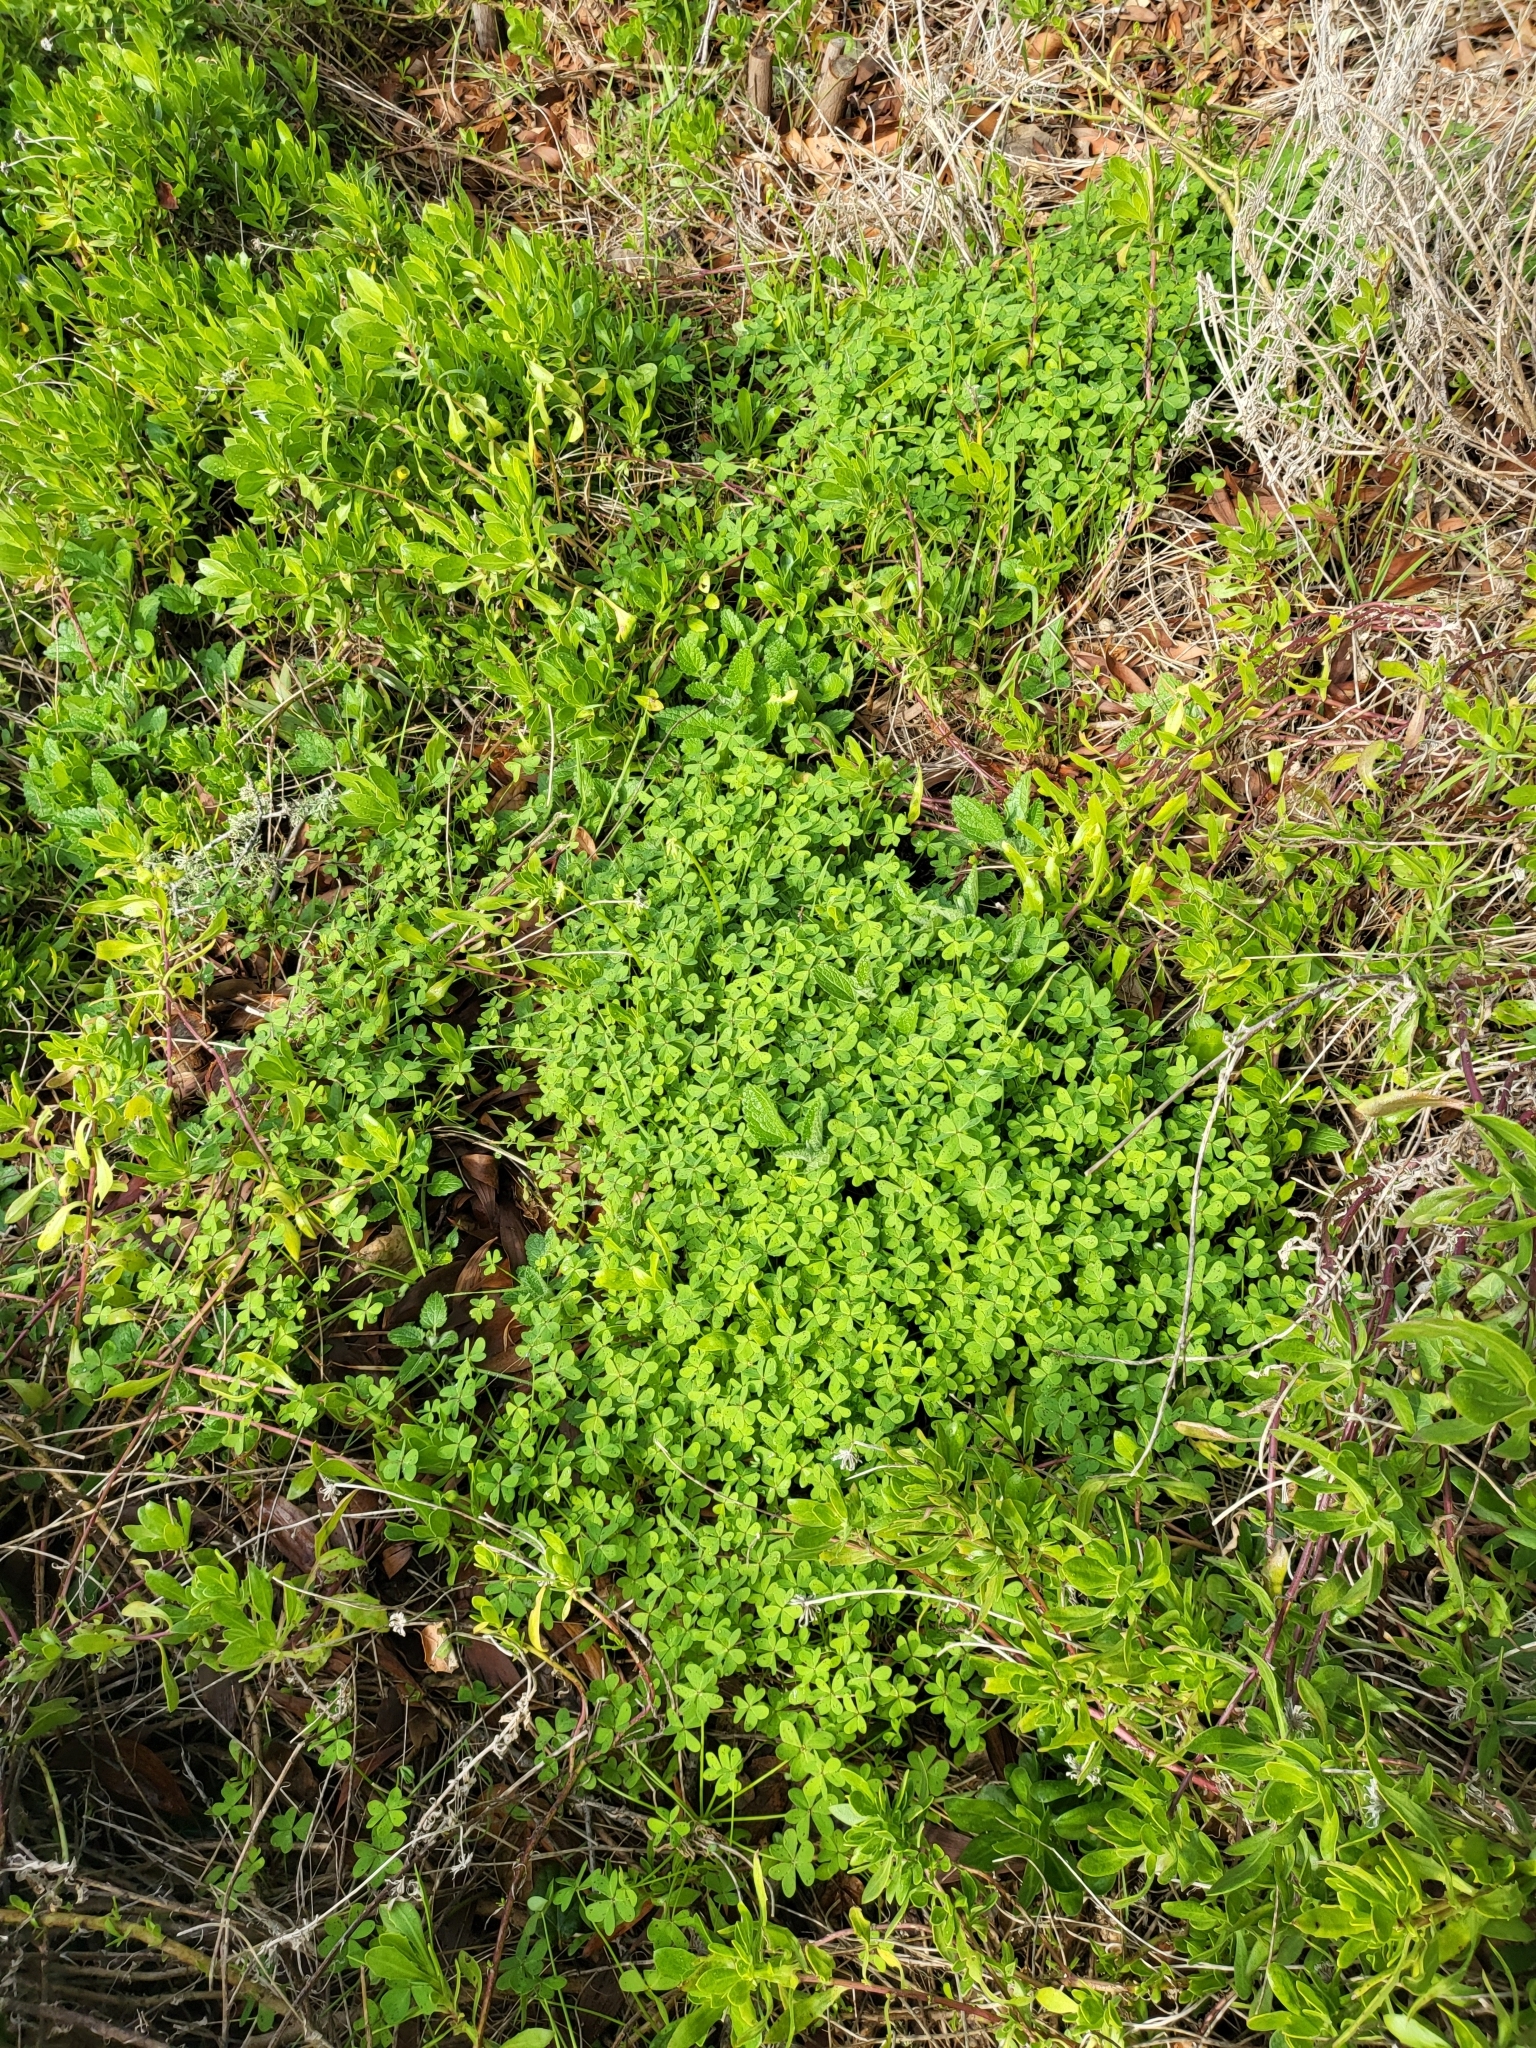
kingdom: Plantae
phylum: Tracheophyta
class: Magnoliopsida
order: Oxalidales
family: Oxalidaceae
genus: Oxalis
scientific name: Oxalis pes-caprae
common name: Bermuda-buttercup
